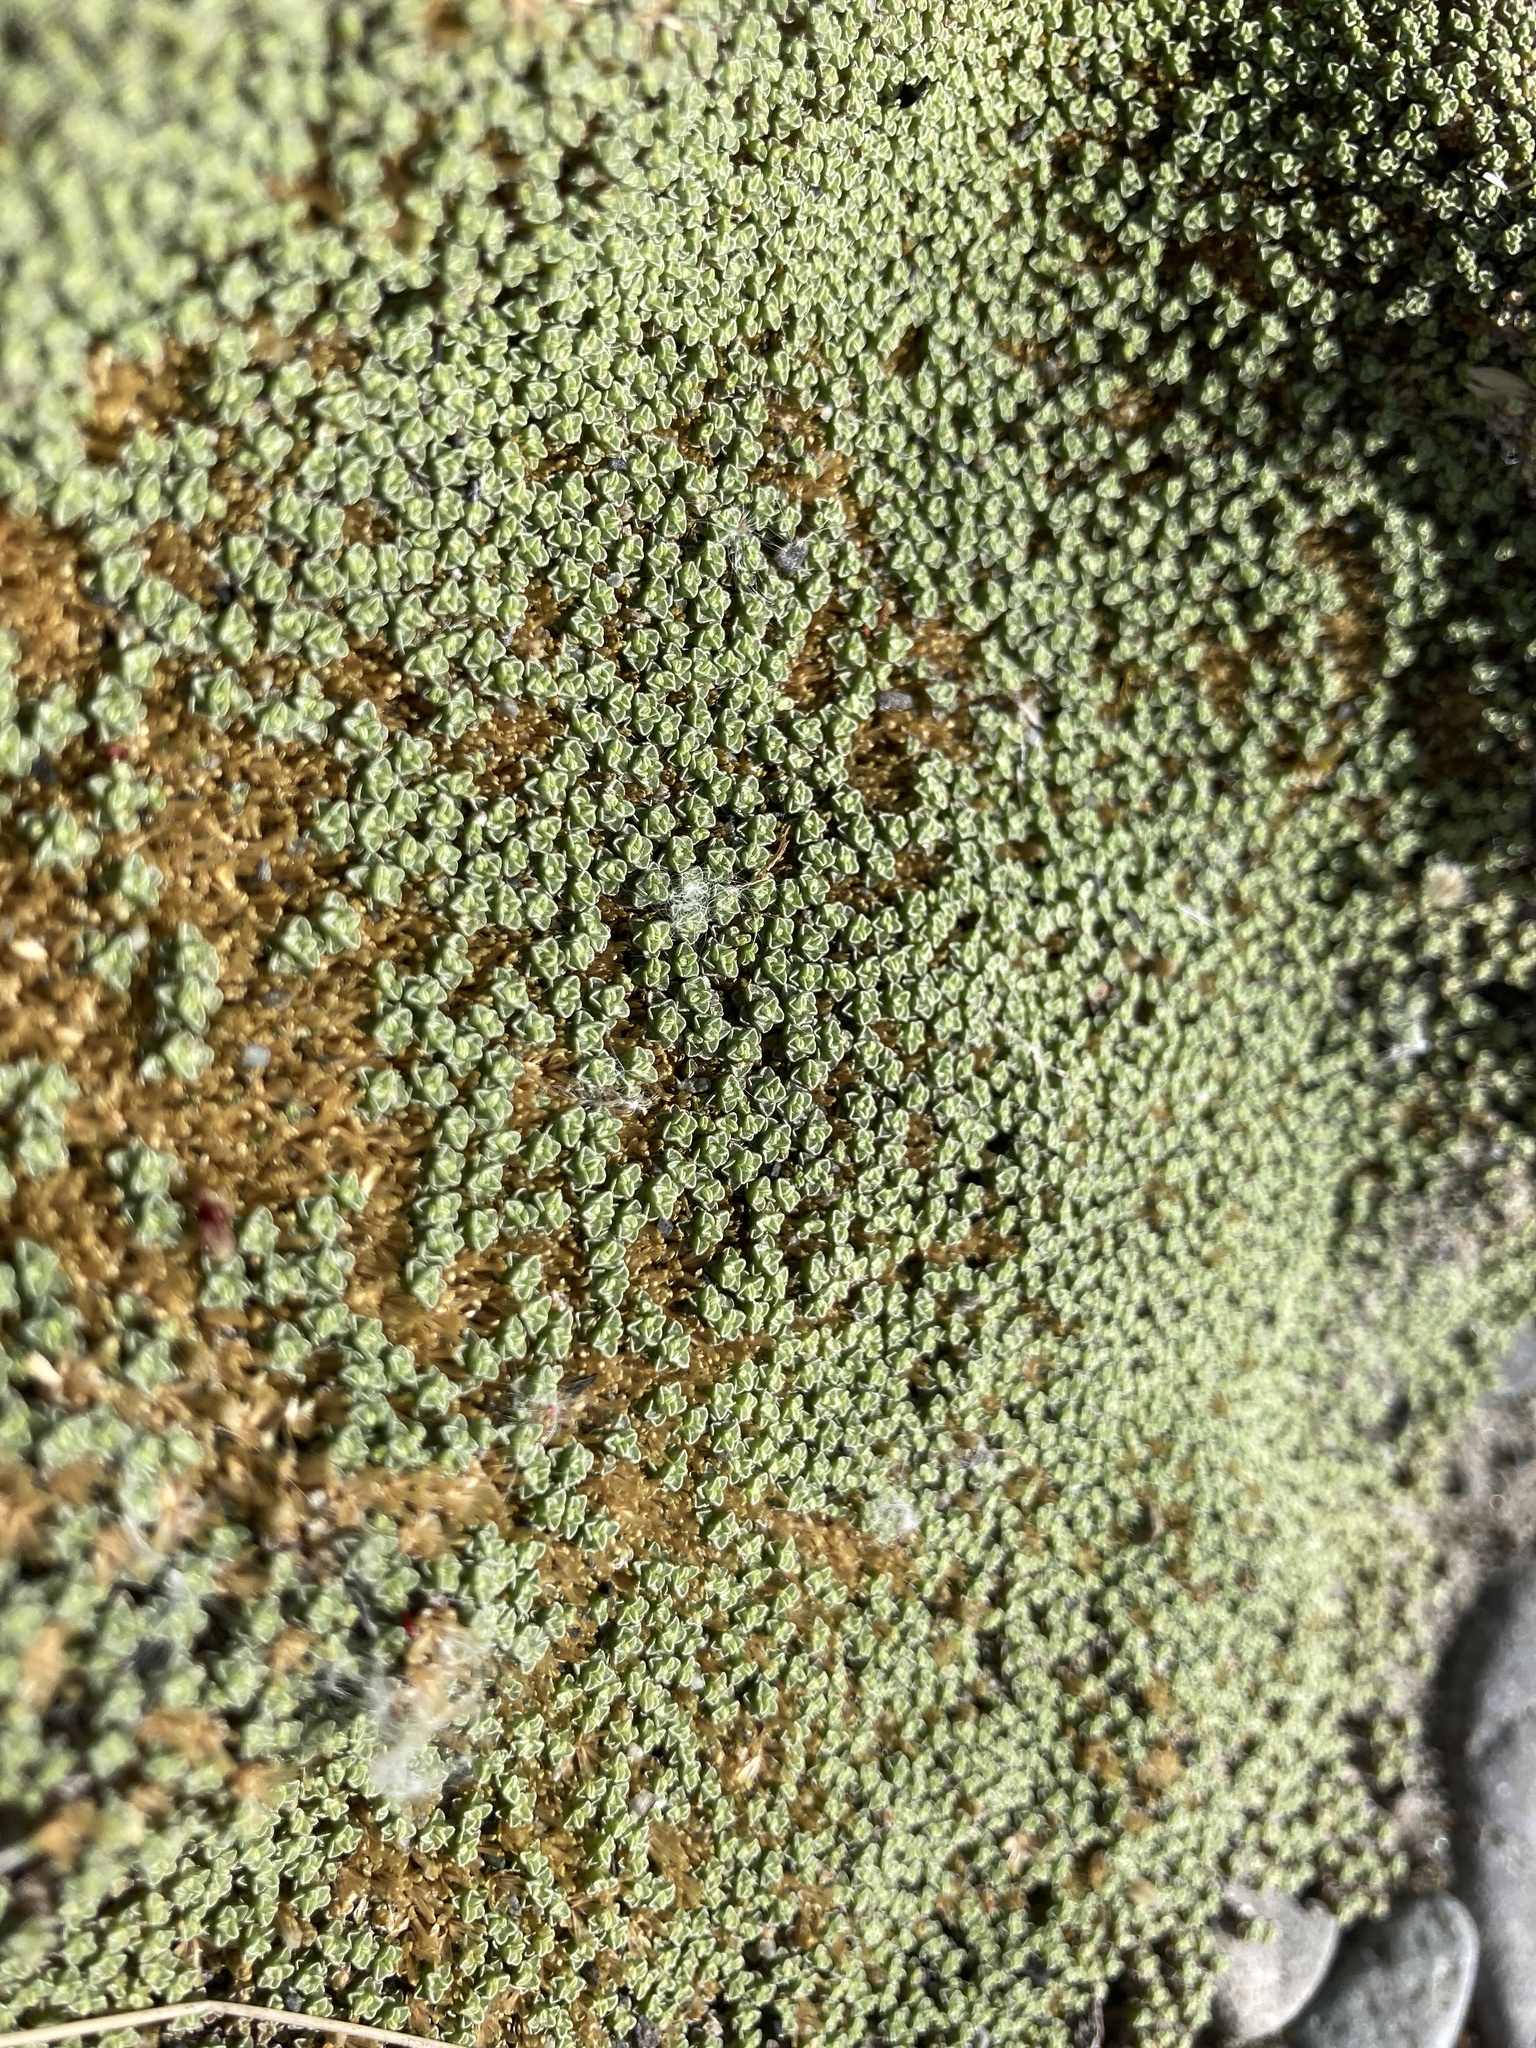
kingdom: Plantae
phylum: Tracheophyta
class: Magnoliopsida
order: Asterales
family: Asteraceae
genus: Raoulia
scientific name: Raoulia australis
